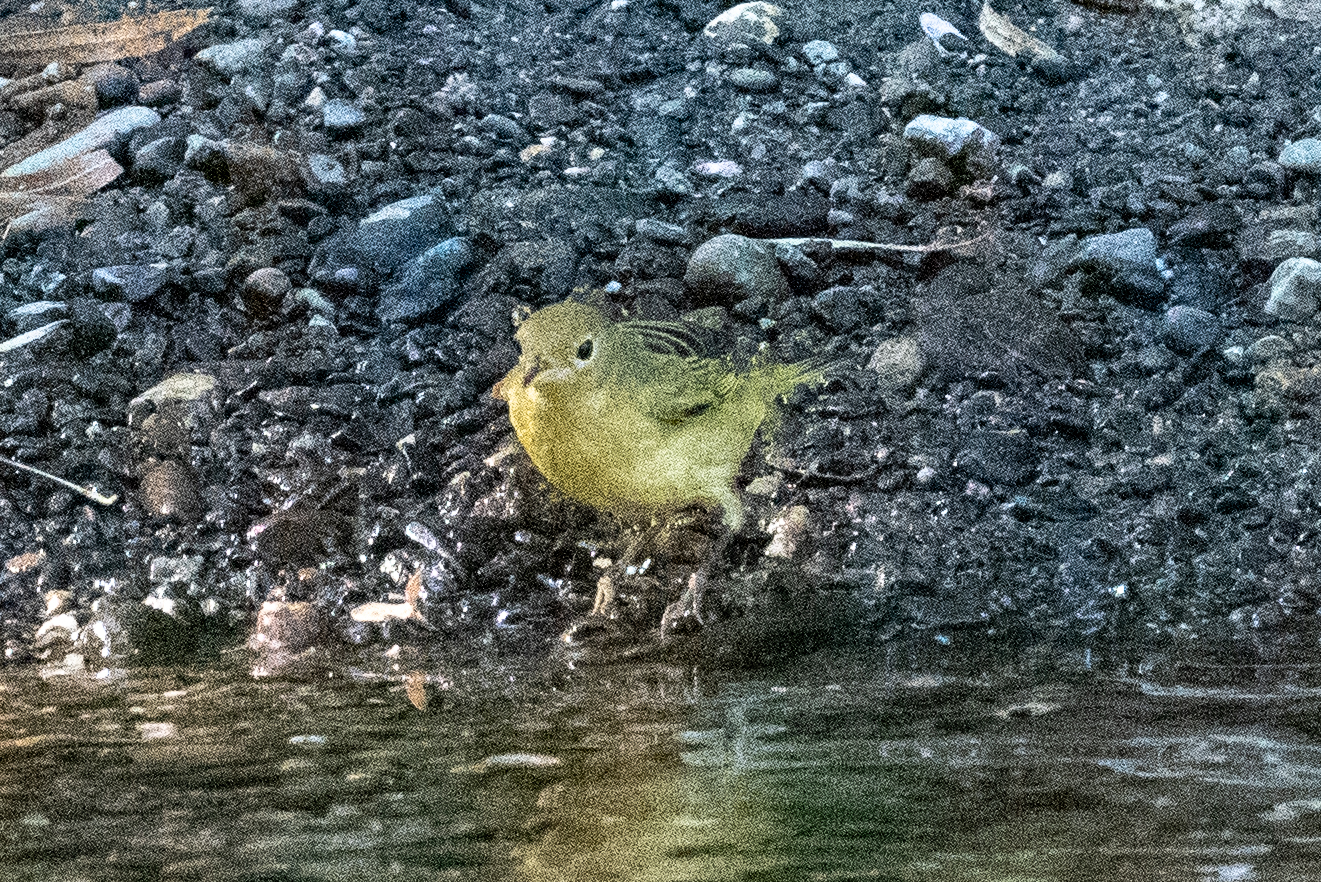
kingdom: Animalia
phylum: Chordata
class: Aves
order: Passeriformes
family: Parulidae
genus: Setophaga
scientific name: Setophaga petechia
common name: Yellow warbler
